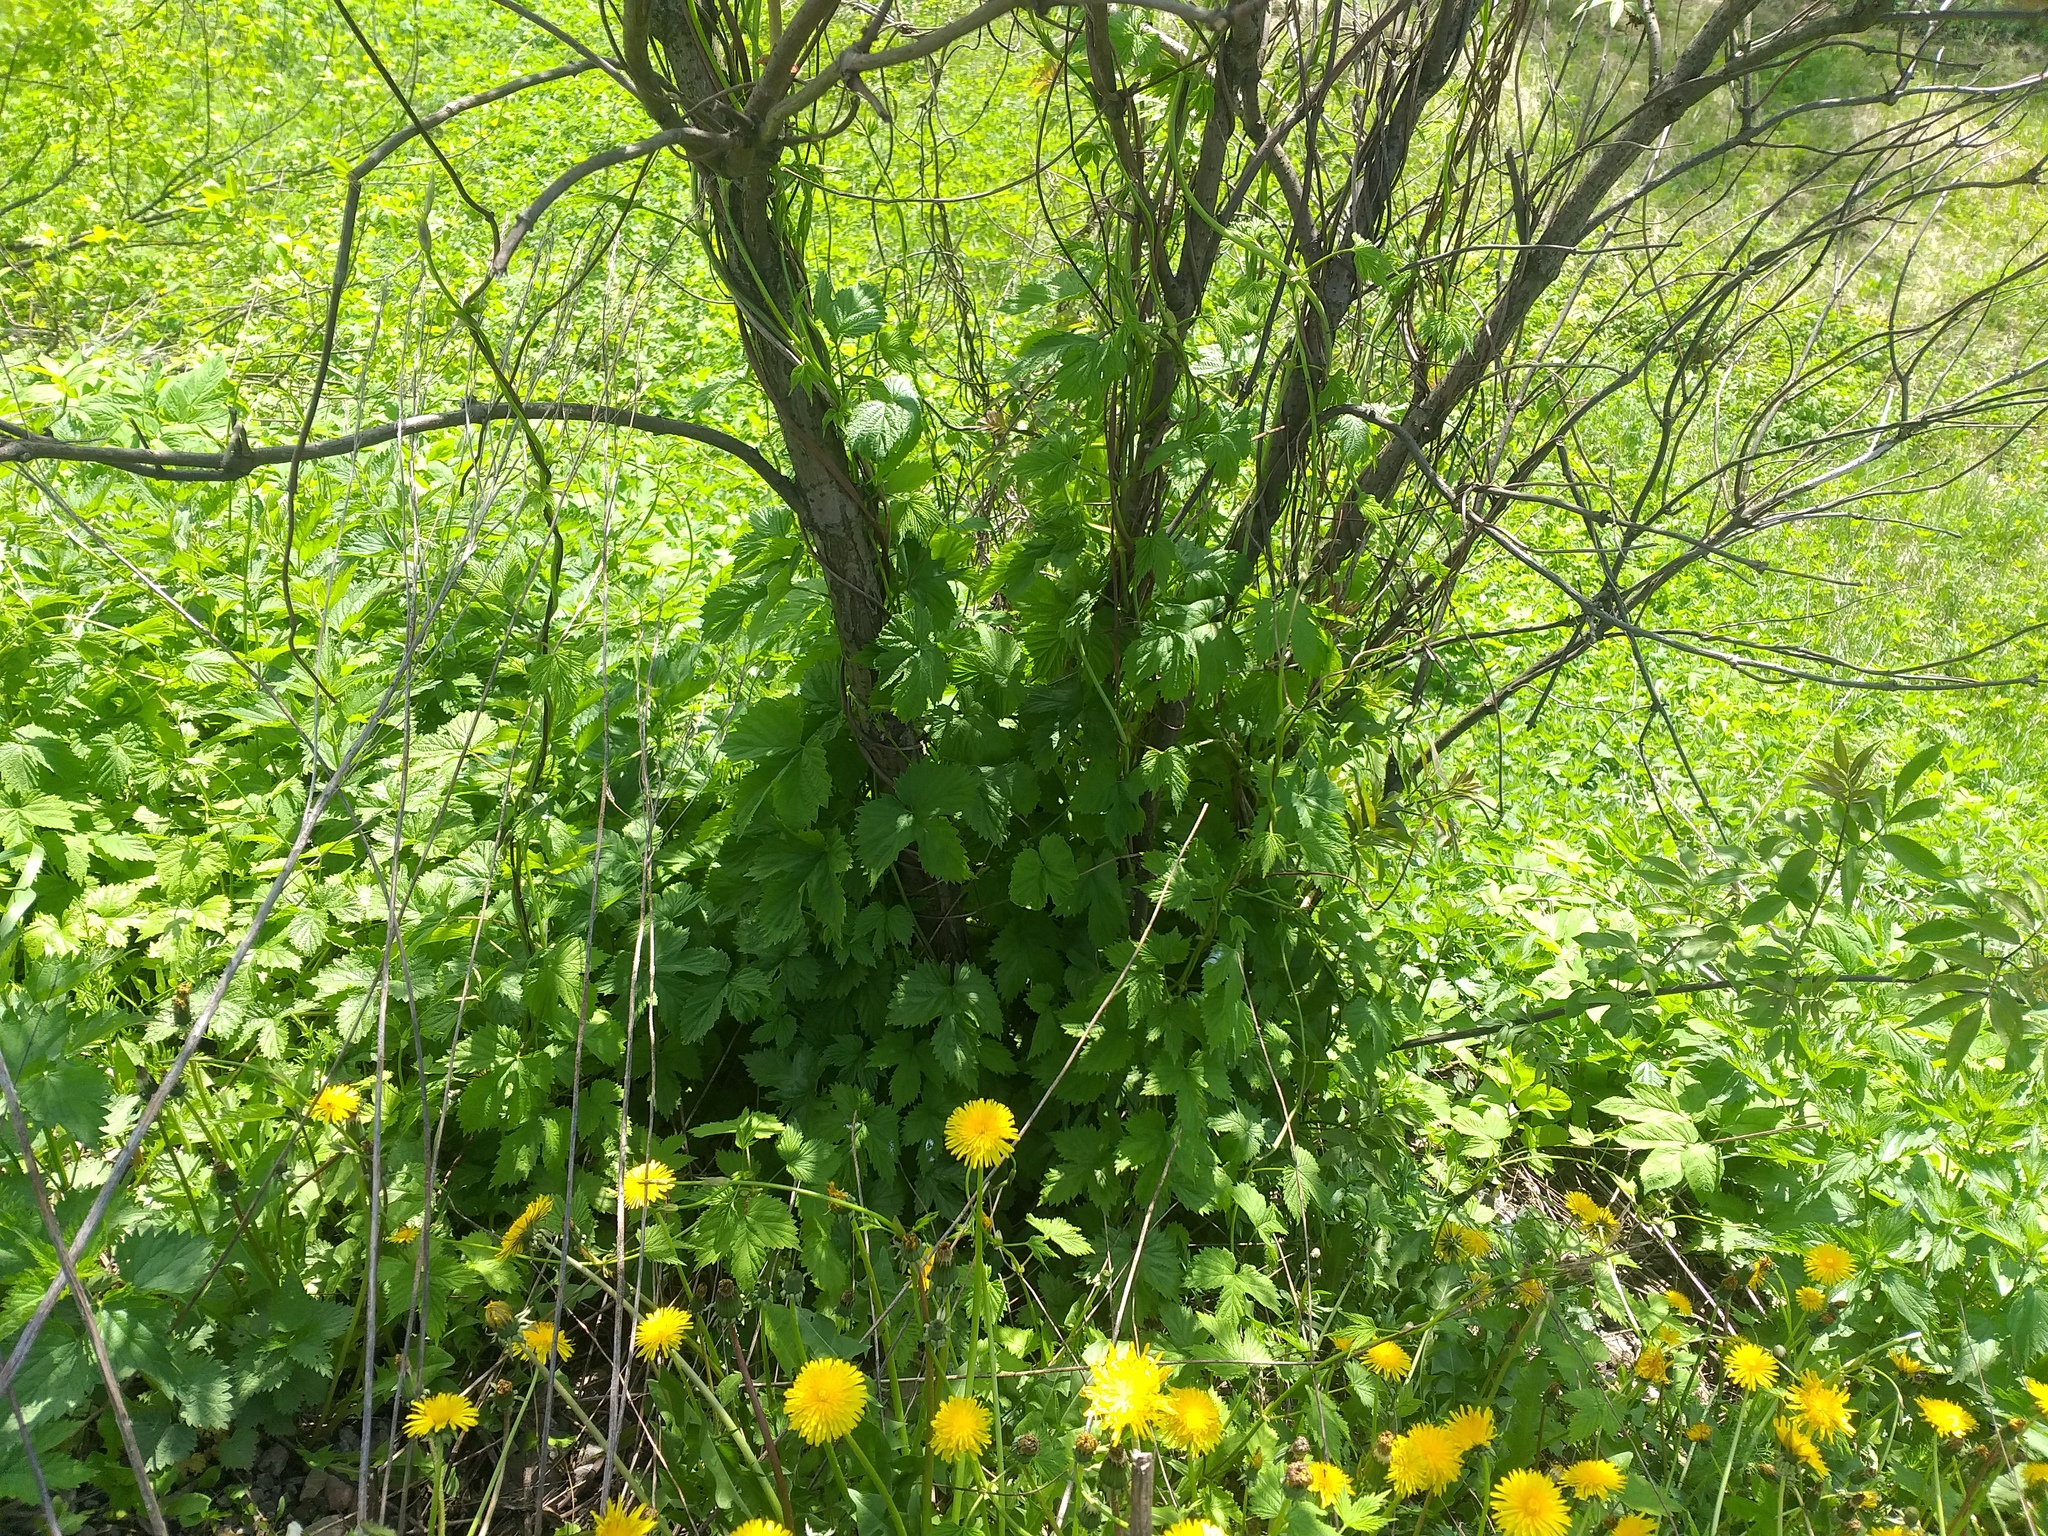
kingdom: Plantae
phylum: Tracheophyta
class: Magnoliopsida
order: Rosales
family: Cannabaceae
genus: Humulus
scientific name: Humulus lupulus
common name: Hop
